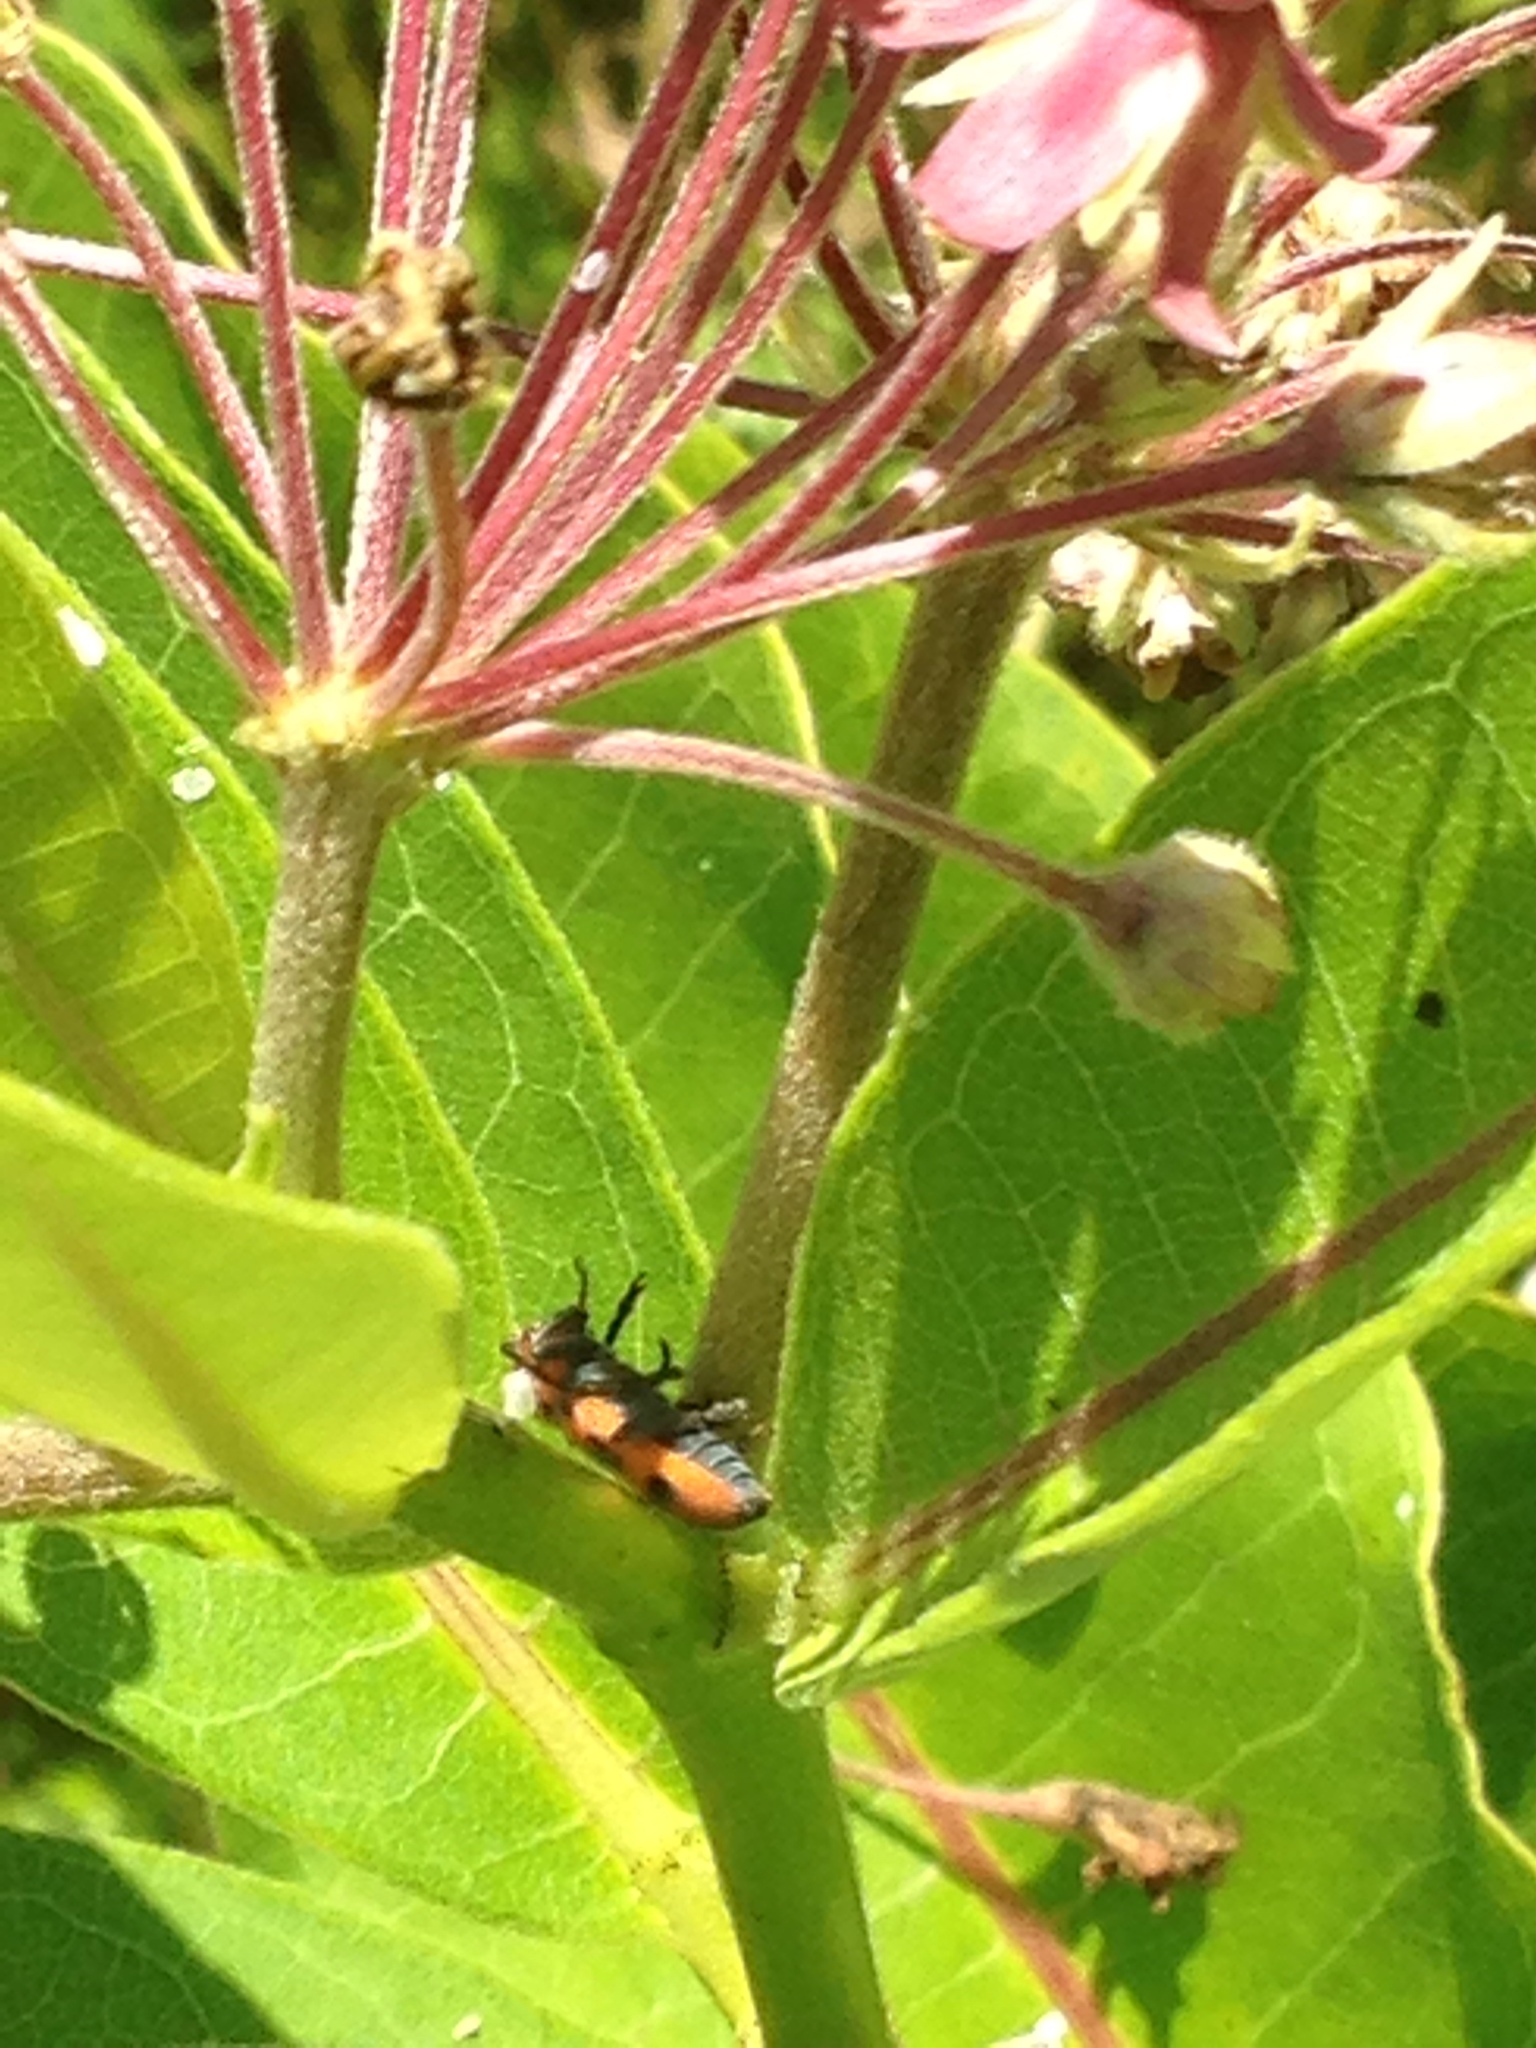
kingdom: Animalia
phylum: Arthropoda
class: Insecta
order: Coleoptera
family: Cerambycidae
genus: Tetraopes
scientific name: Tetraopes tetrophthalmus
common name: Red milkweed beetle
